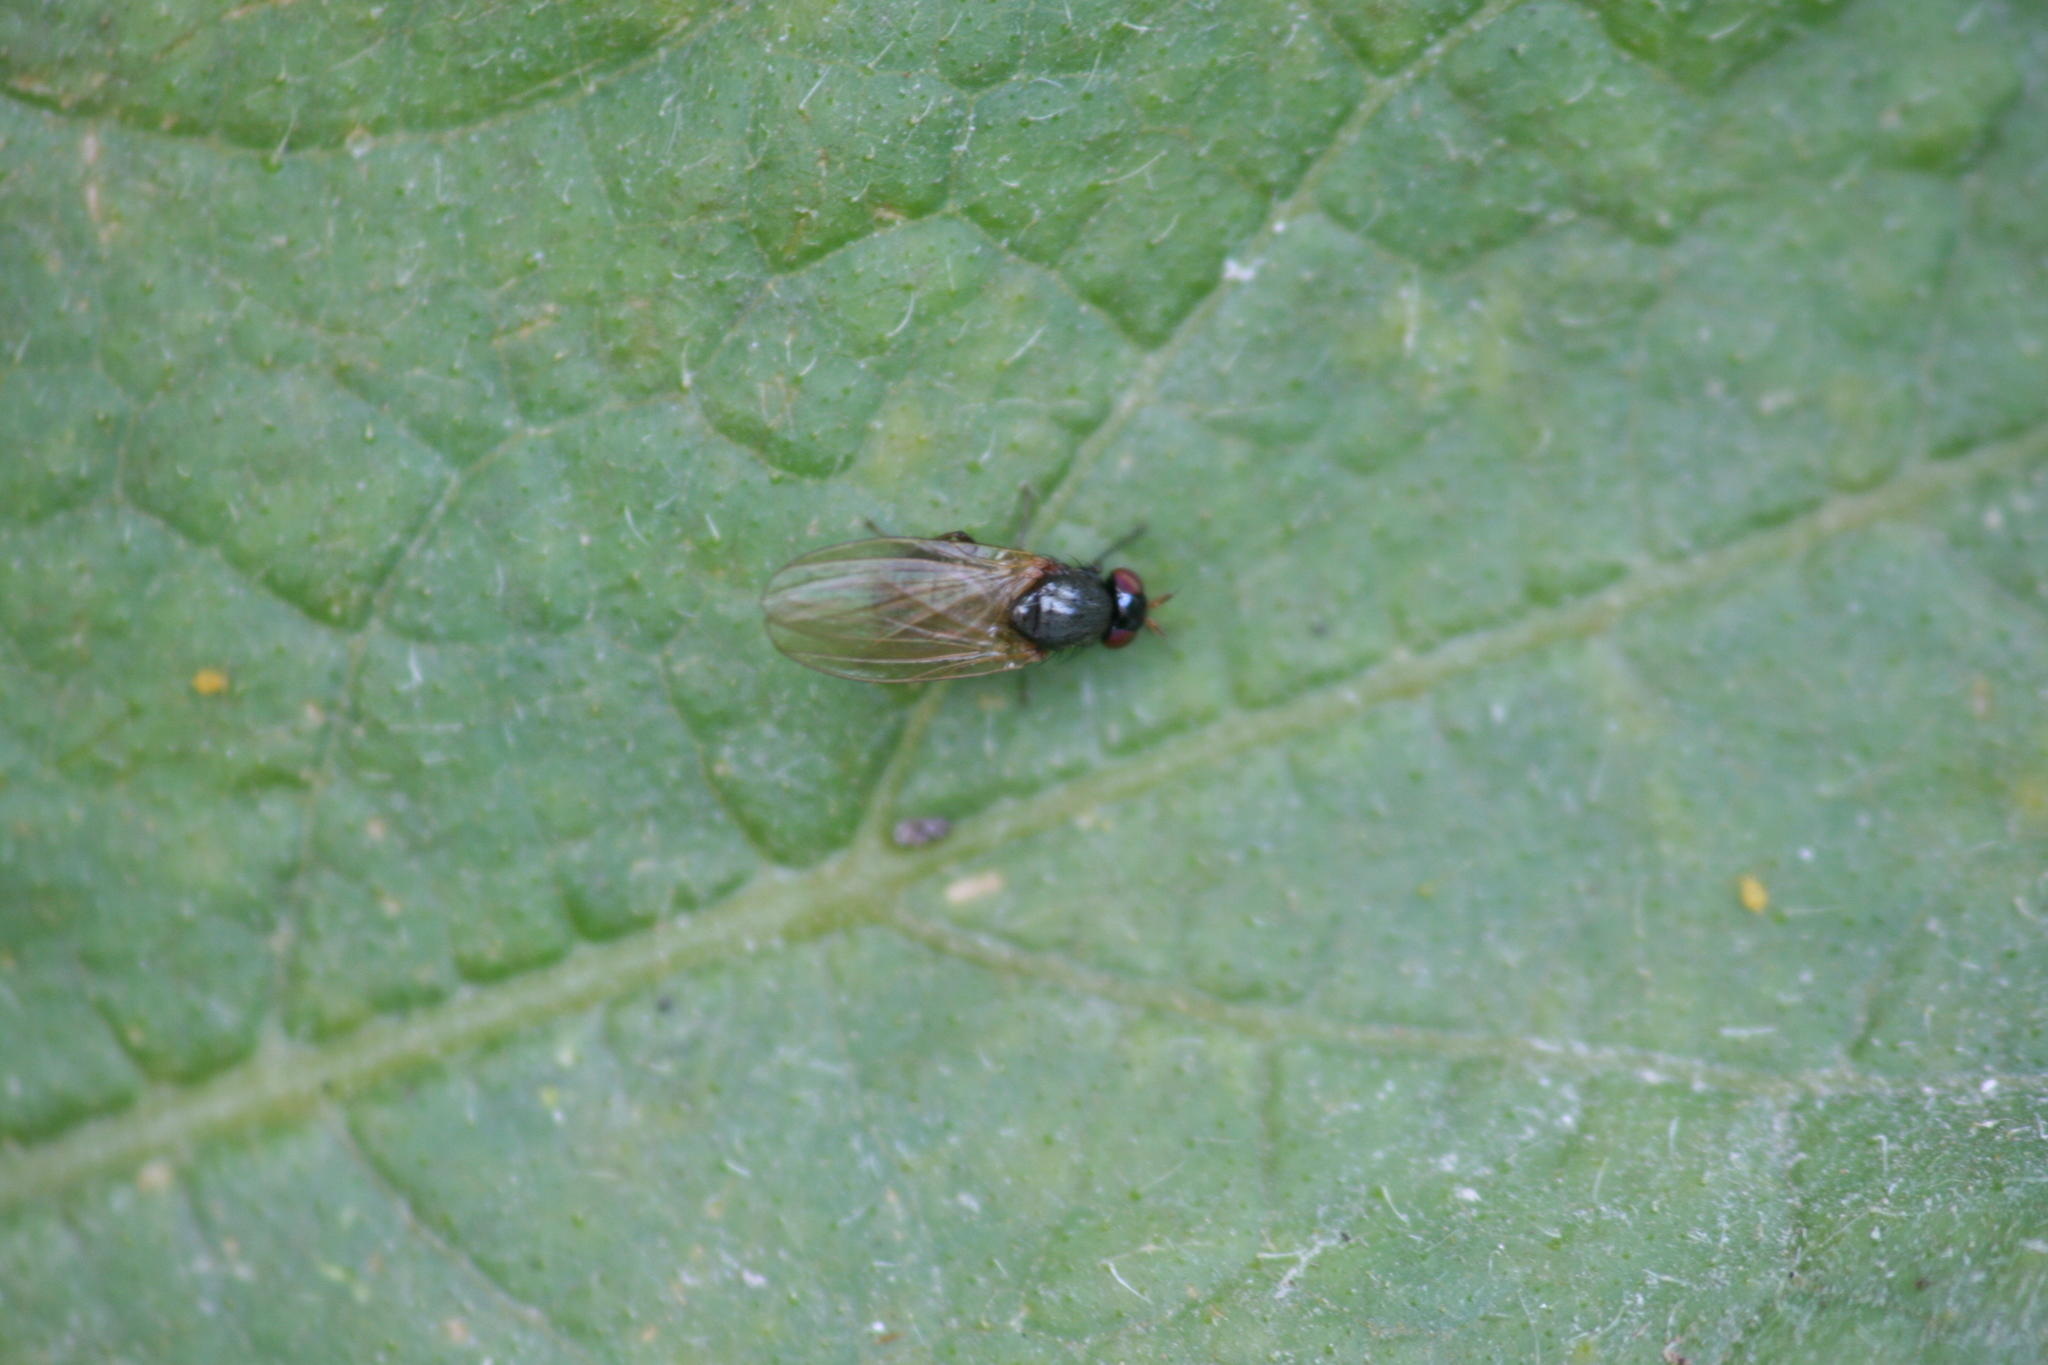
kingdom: Animalia
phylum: Arthropoda
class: Insecta
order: Diptera
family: Lauxaniidae
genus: Calliopum
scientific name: Calliopum
